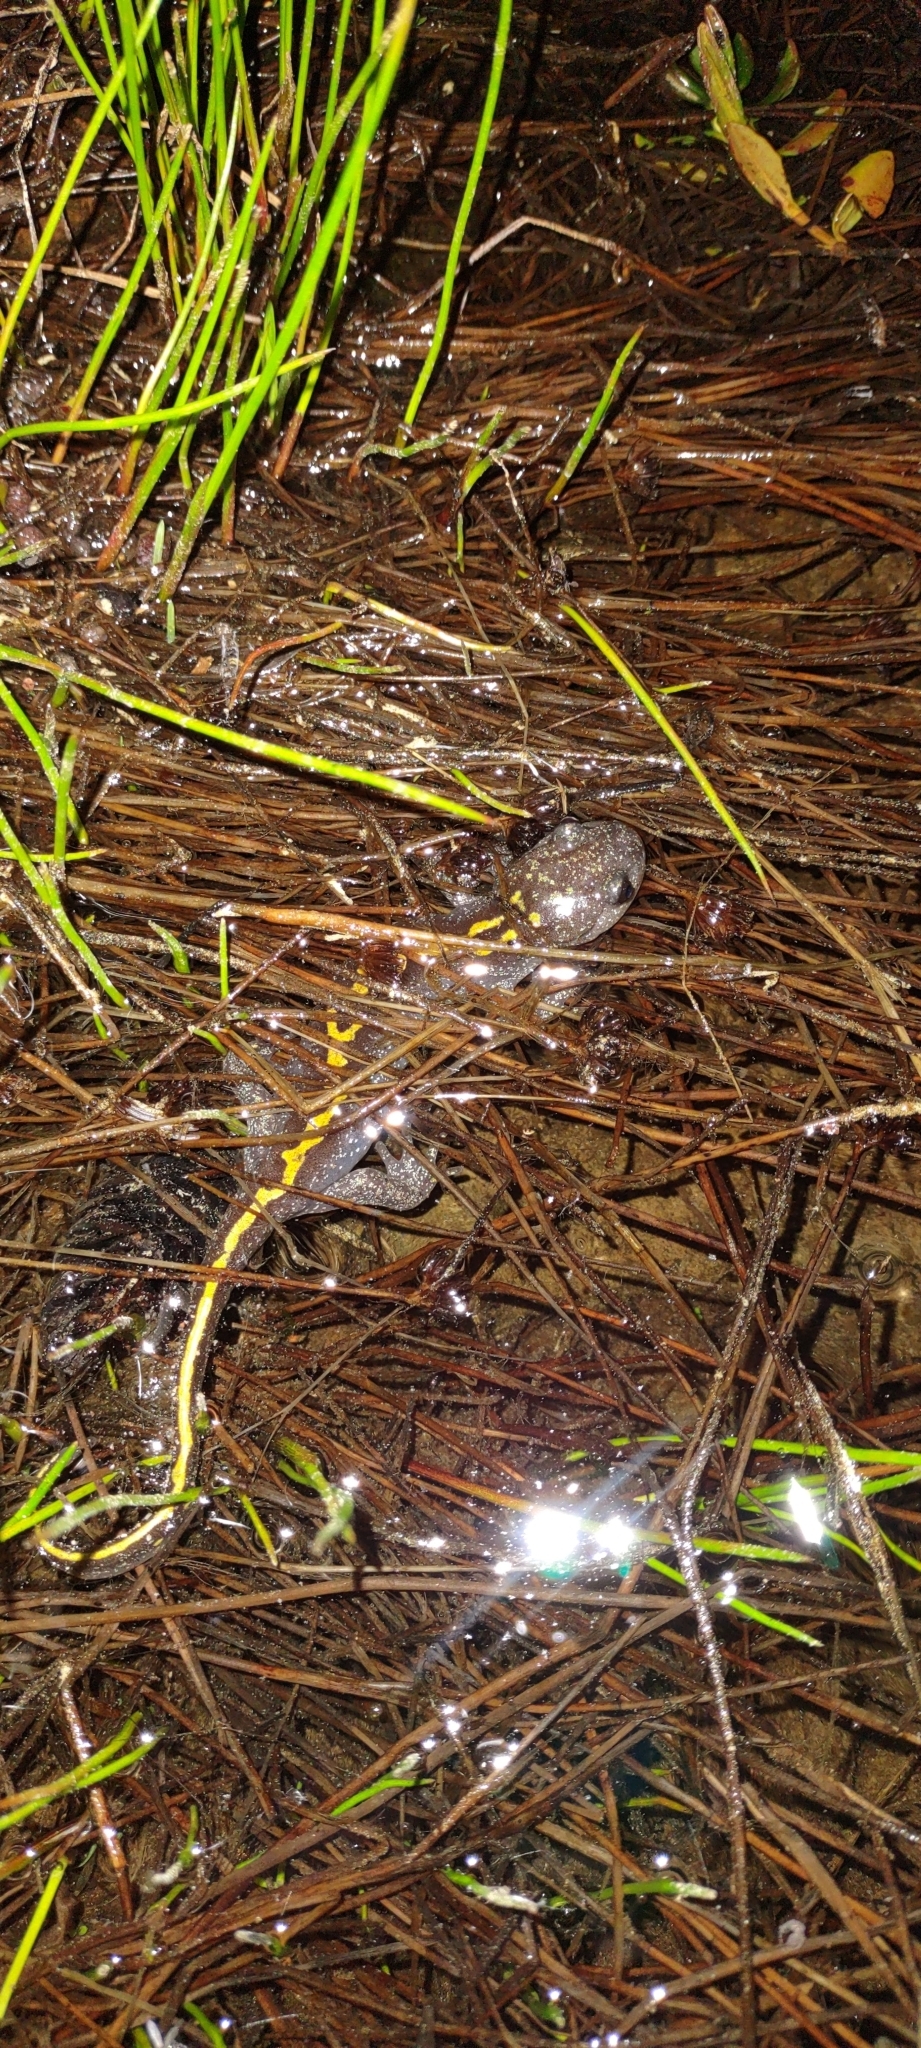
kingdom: Animalia
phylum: Chordata
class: Amphibia
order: Caudata
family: Ambystomatidae
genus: Ambystoma
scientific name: Ambystoma macrodactylum
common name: Long-toed salamander
